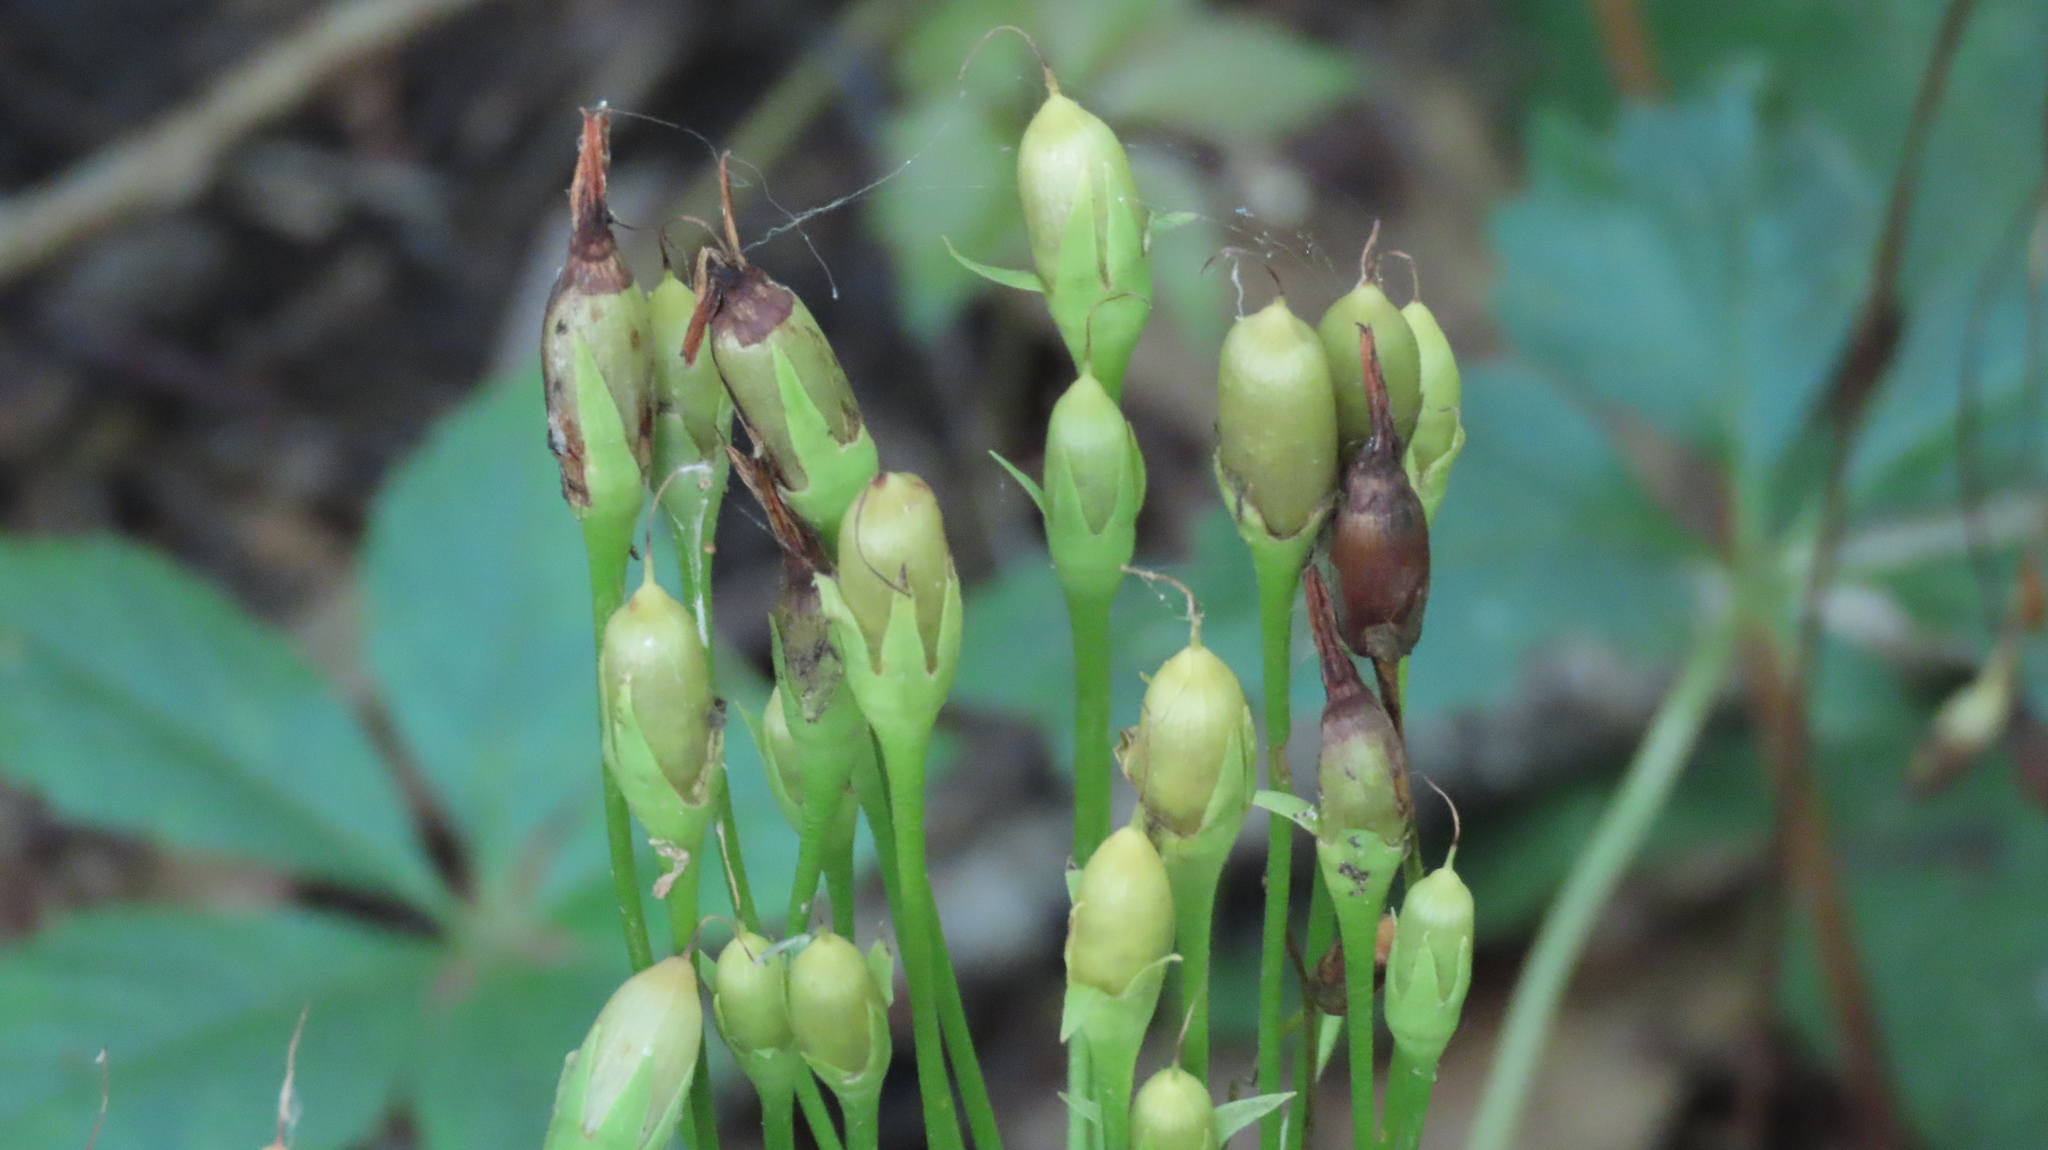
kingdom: Plantae
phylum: Tracheophyta
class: Magnoliopsida
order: Ericales
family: Primulaceae
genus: Dodecatheon
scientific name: Dodecatheon meadia
